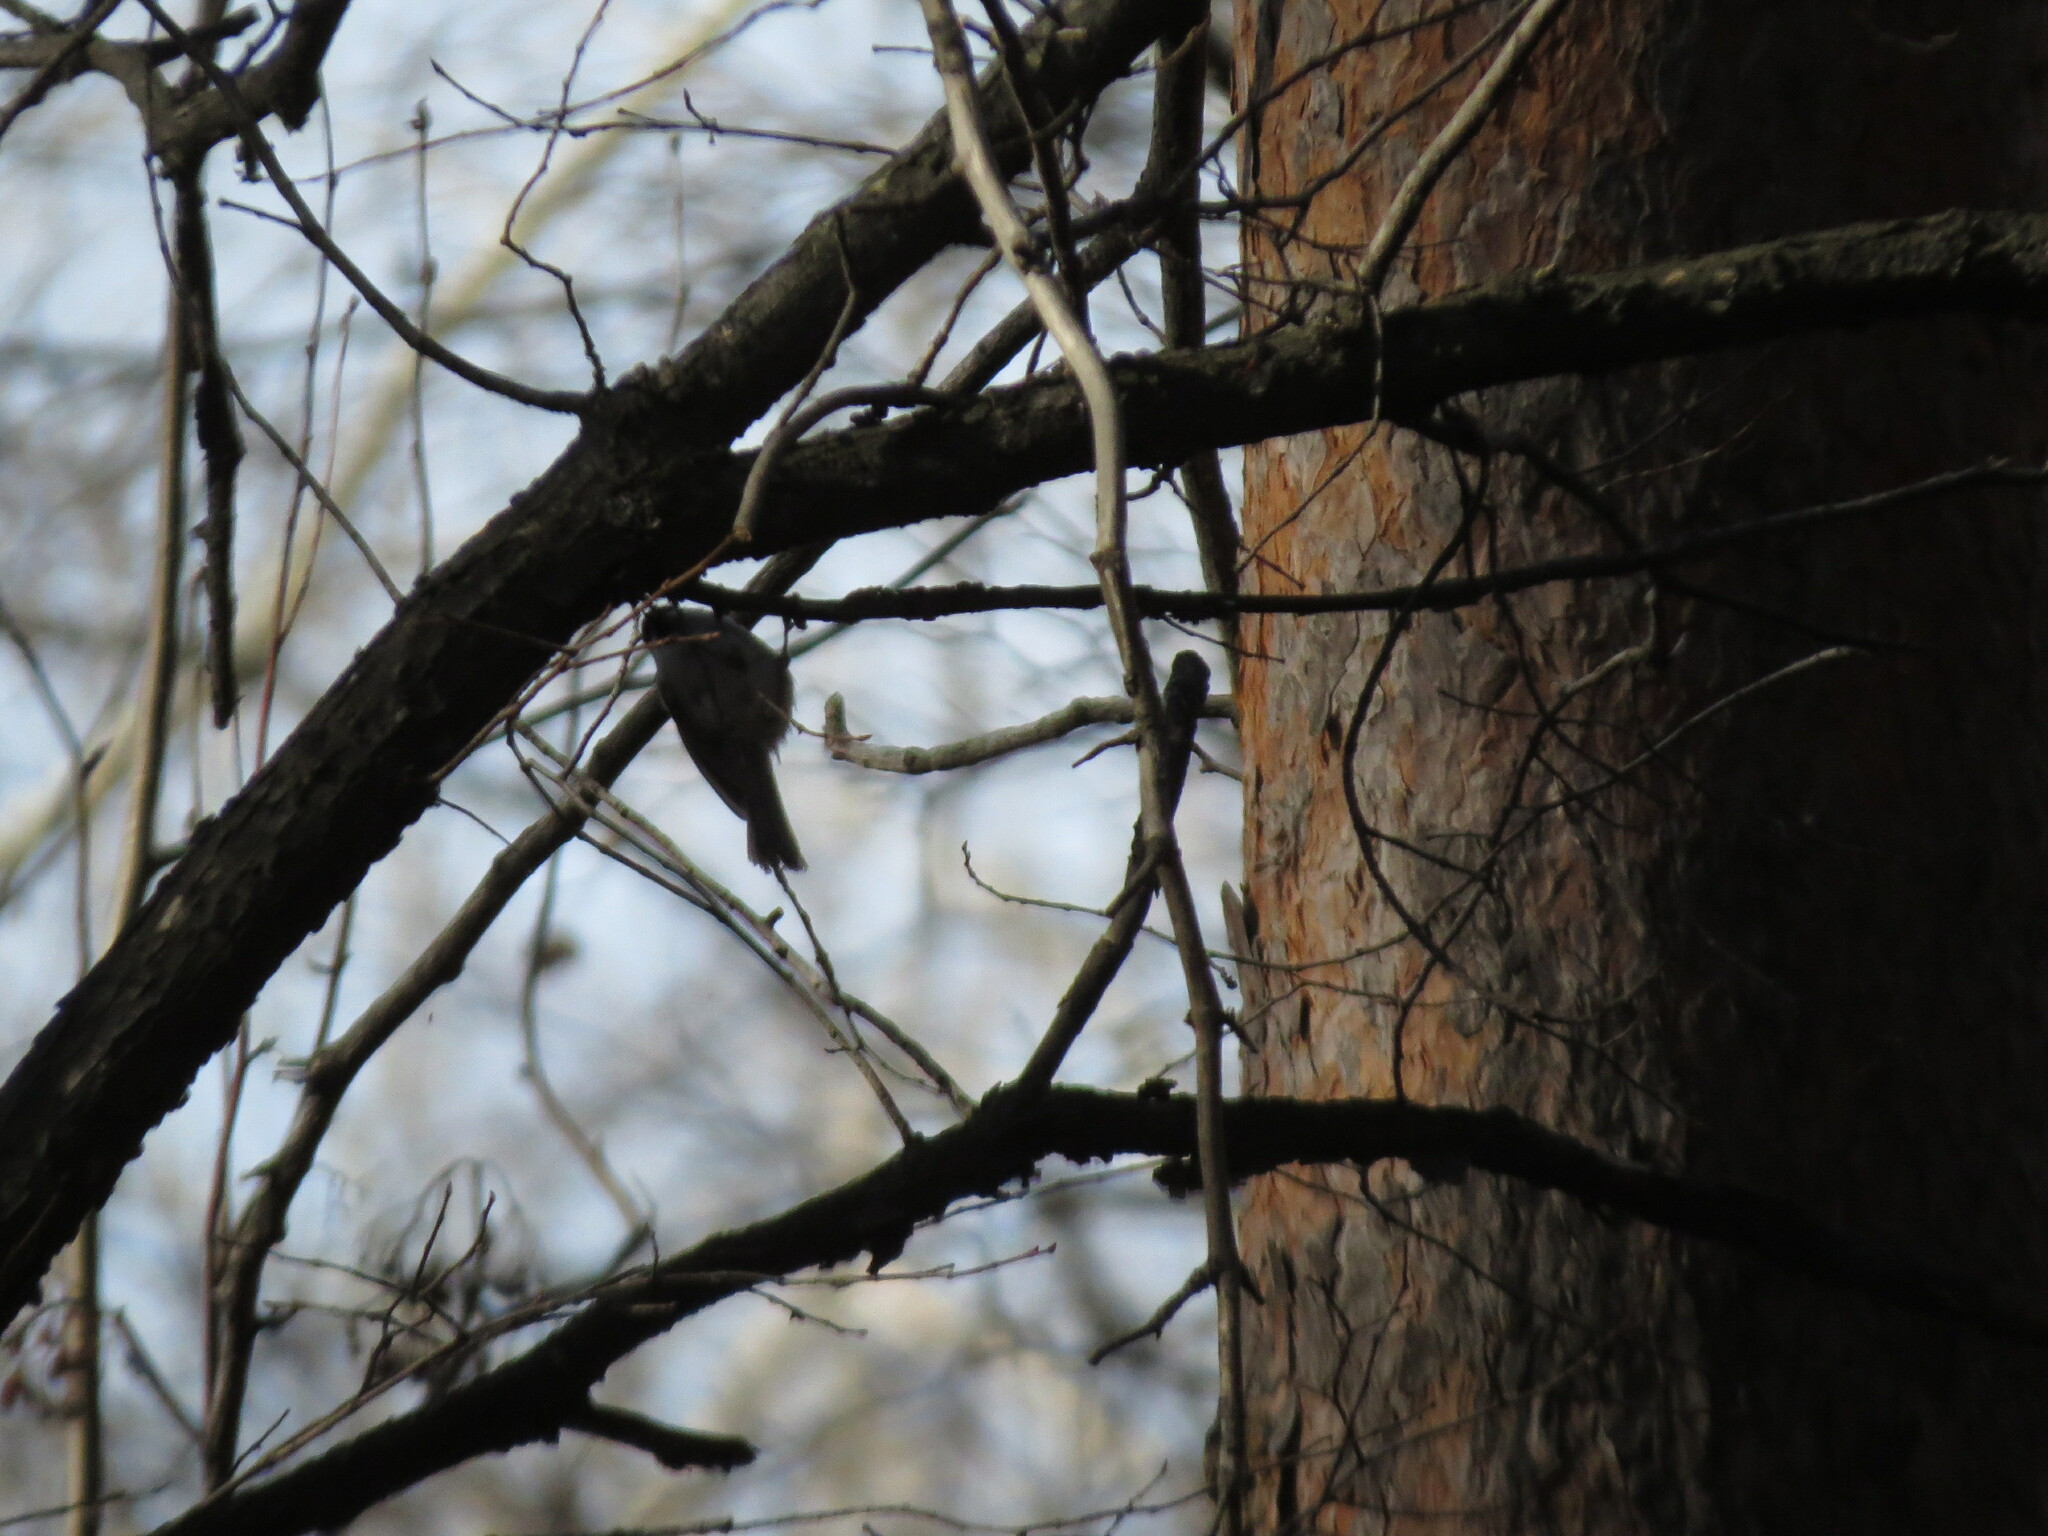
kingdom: Animalia
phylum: Chordata
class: Aves
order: Passeriformes
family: Paridae
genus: Poecile
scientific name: Poecile montanus
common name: Willow tit
